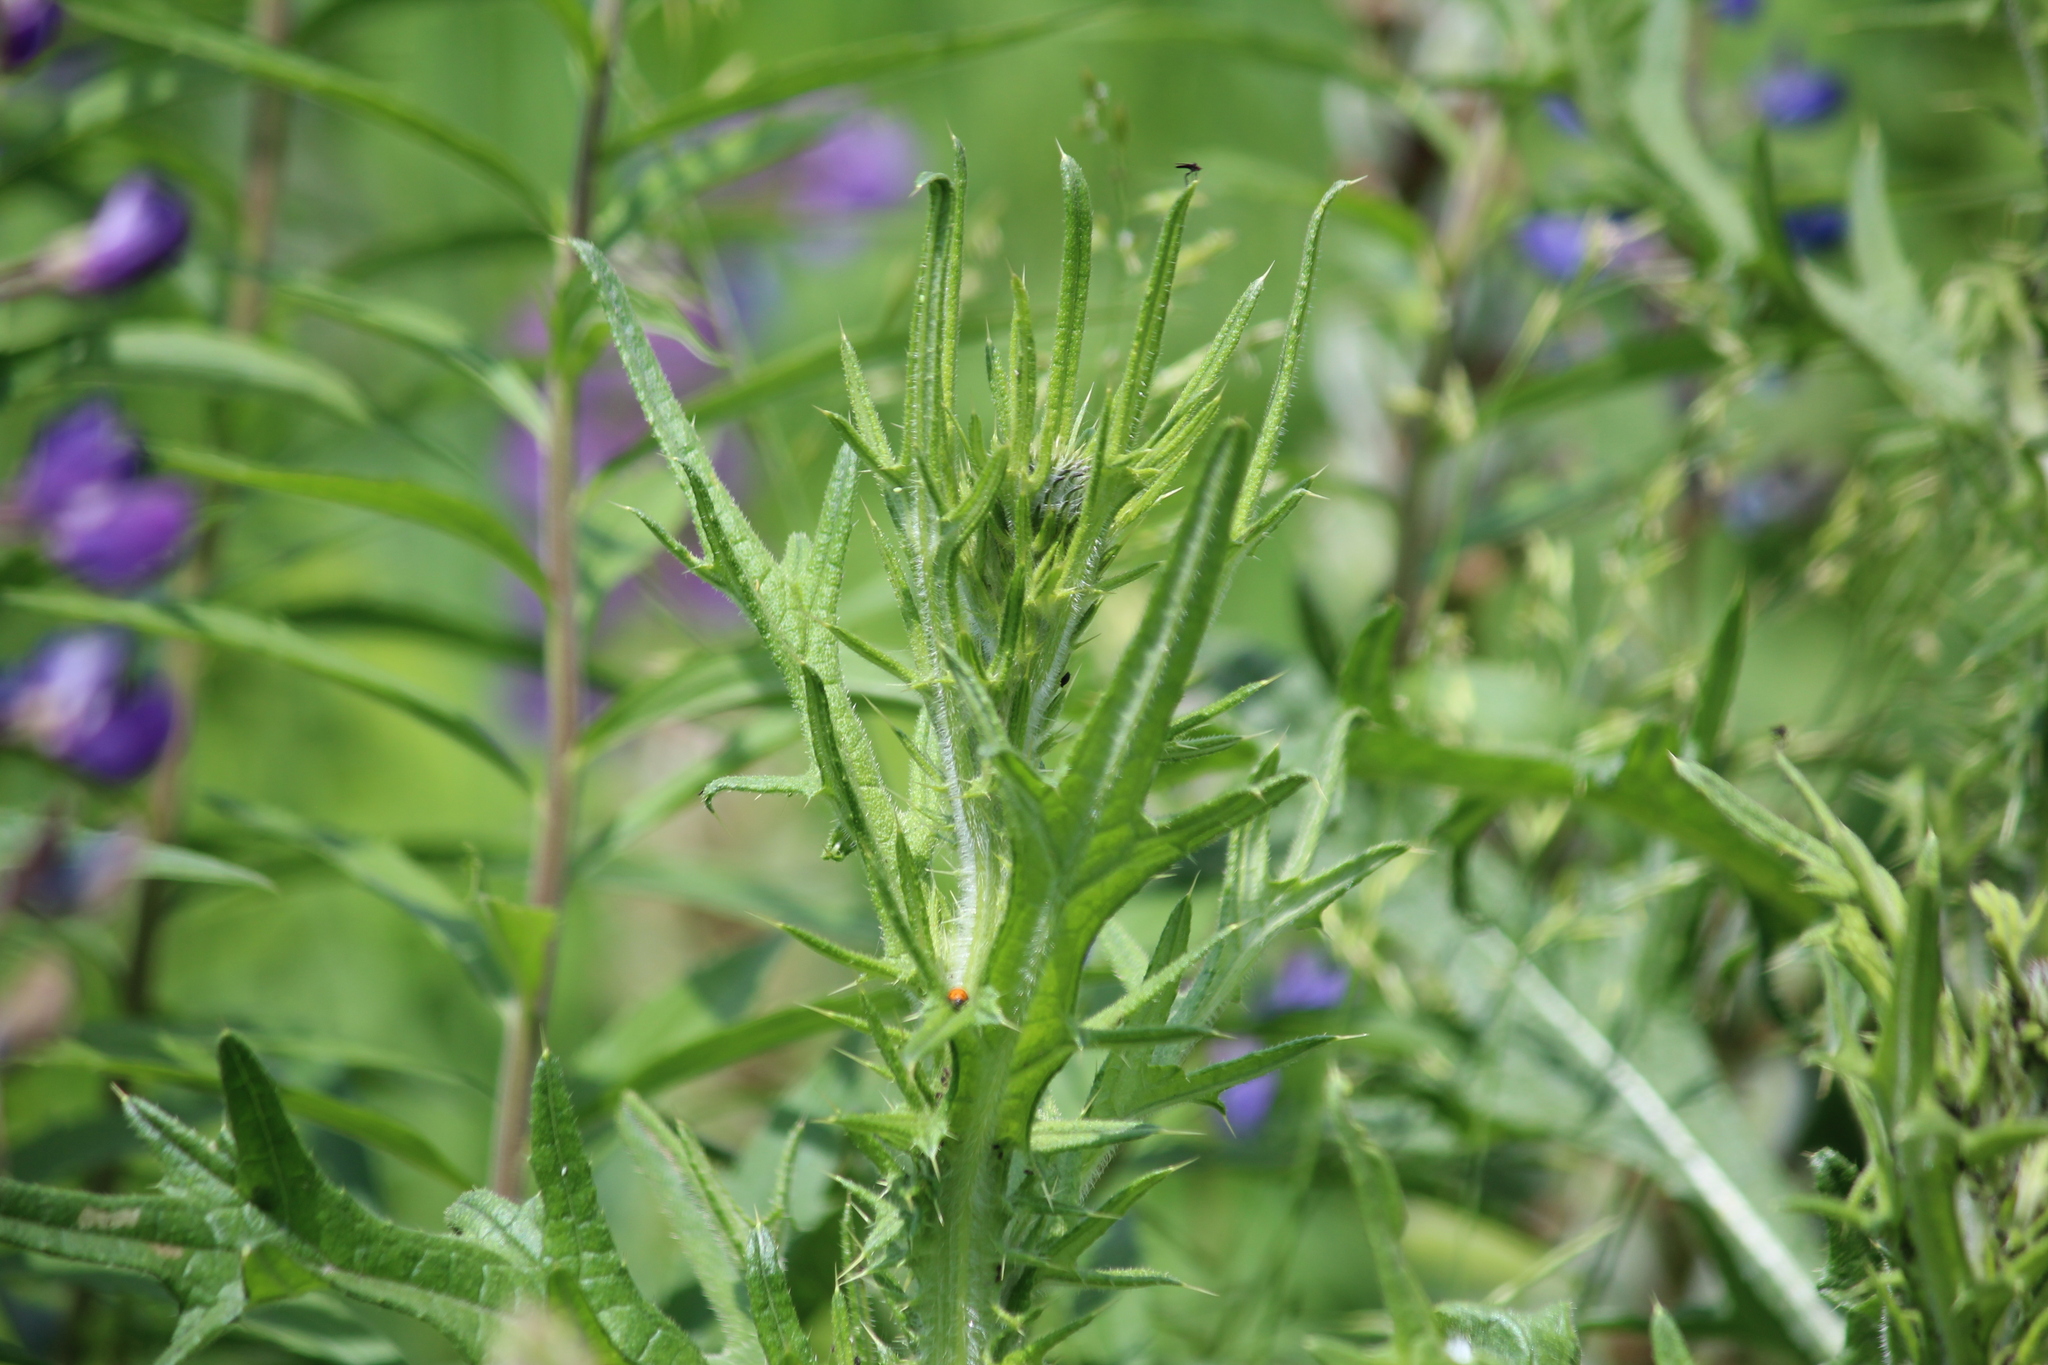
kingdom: Plantae
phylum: Tracheophyta
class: Magnoliopsida
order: Asterales
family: Asteraceae
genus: Cirsium
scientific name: Cirsium vulgare
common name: Bull thistle
